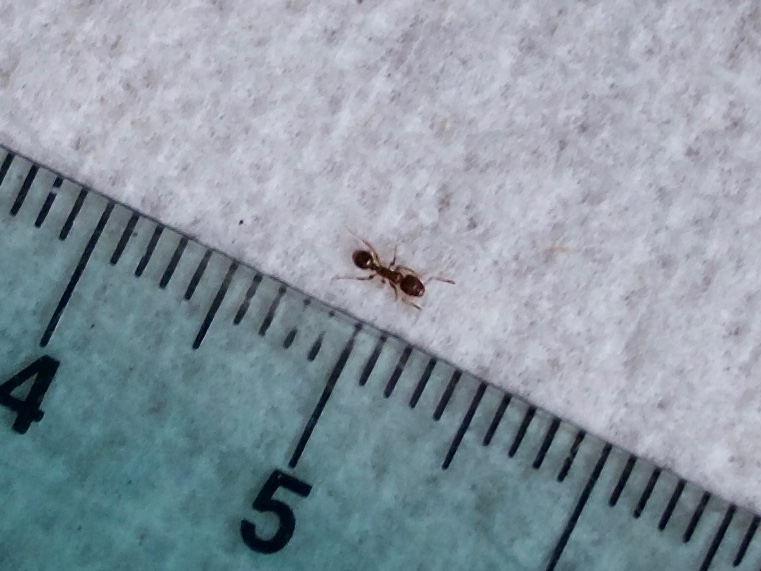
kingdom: Animalia
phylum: Arthropoda
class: Insecta
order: Hymenoptera
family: Formicidae
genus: Tetramorium
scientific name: Tetramorium immigrans
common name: Pavement ant
